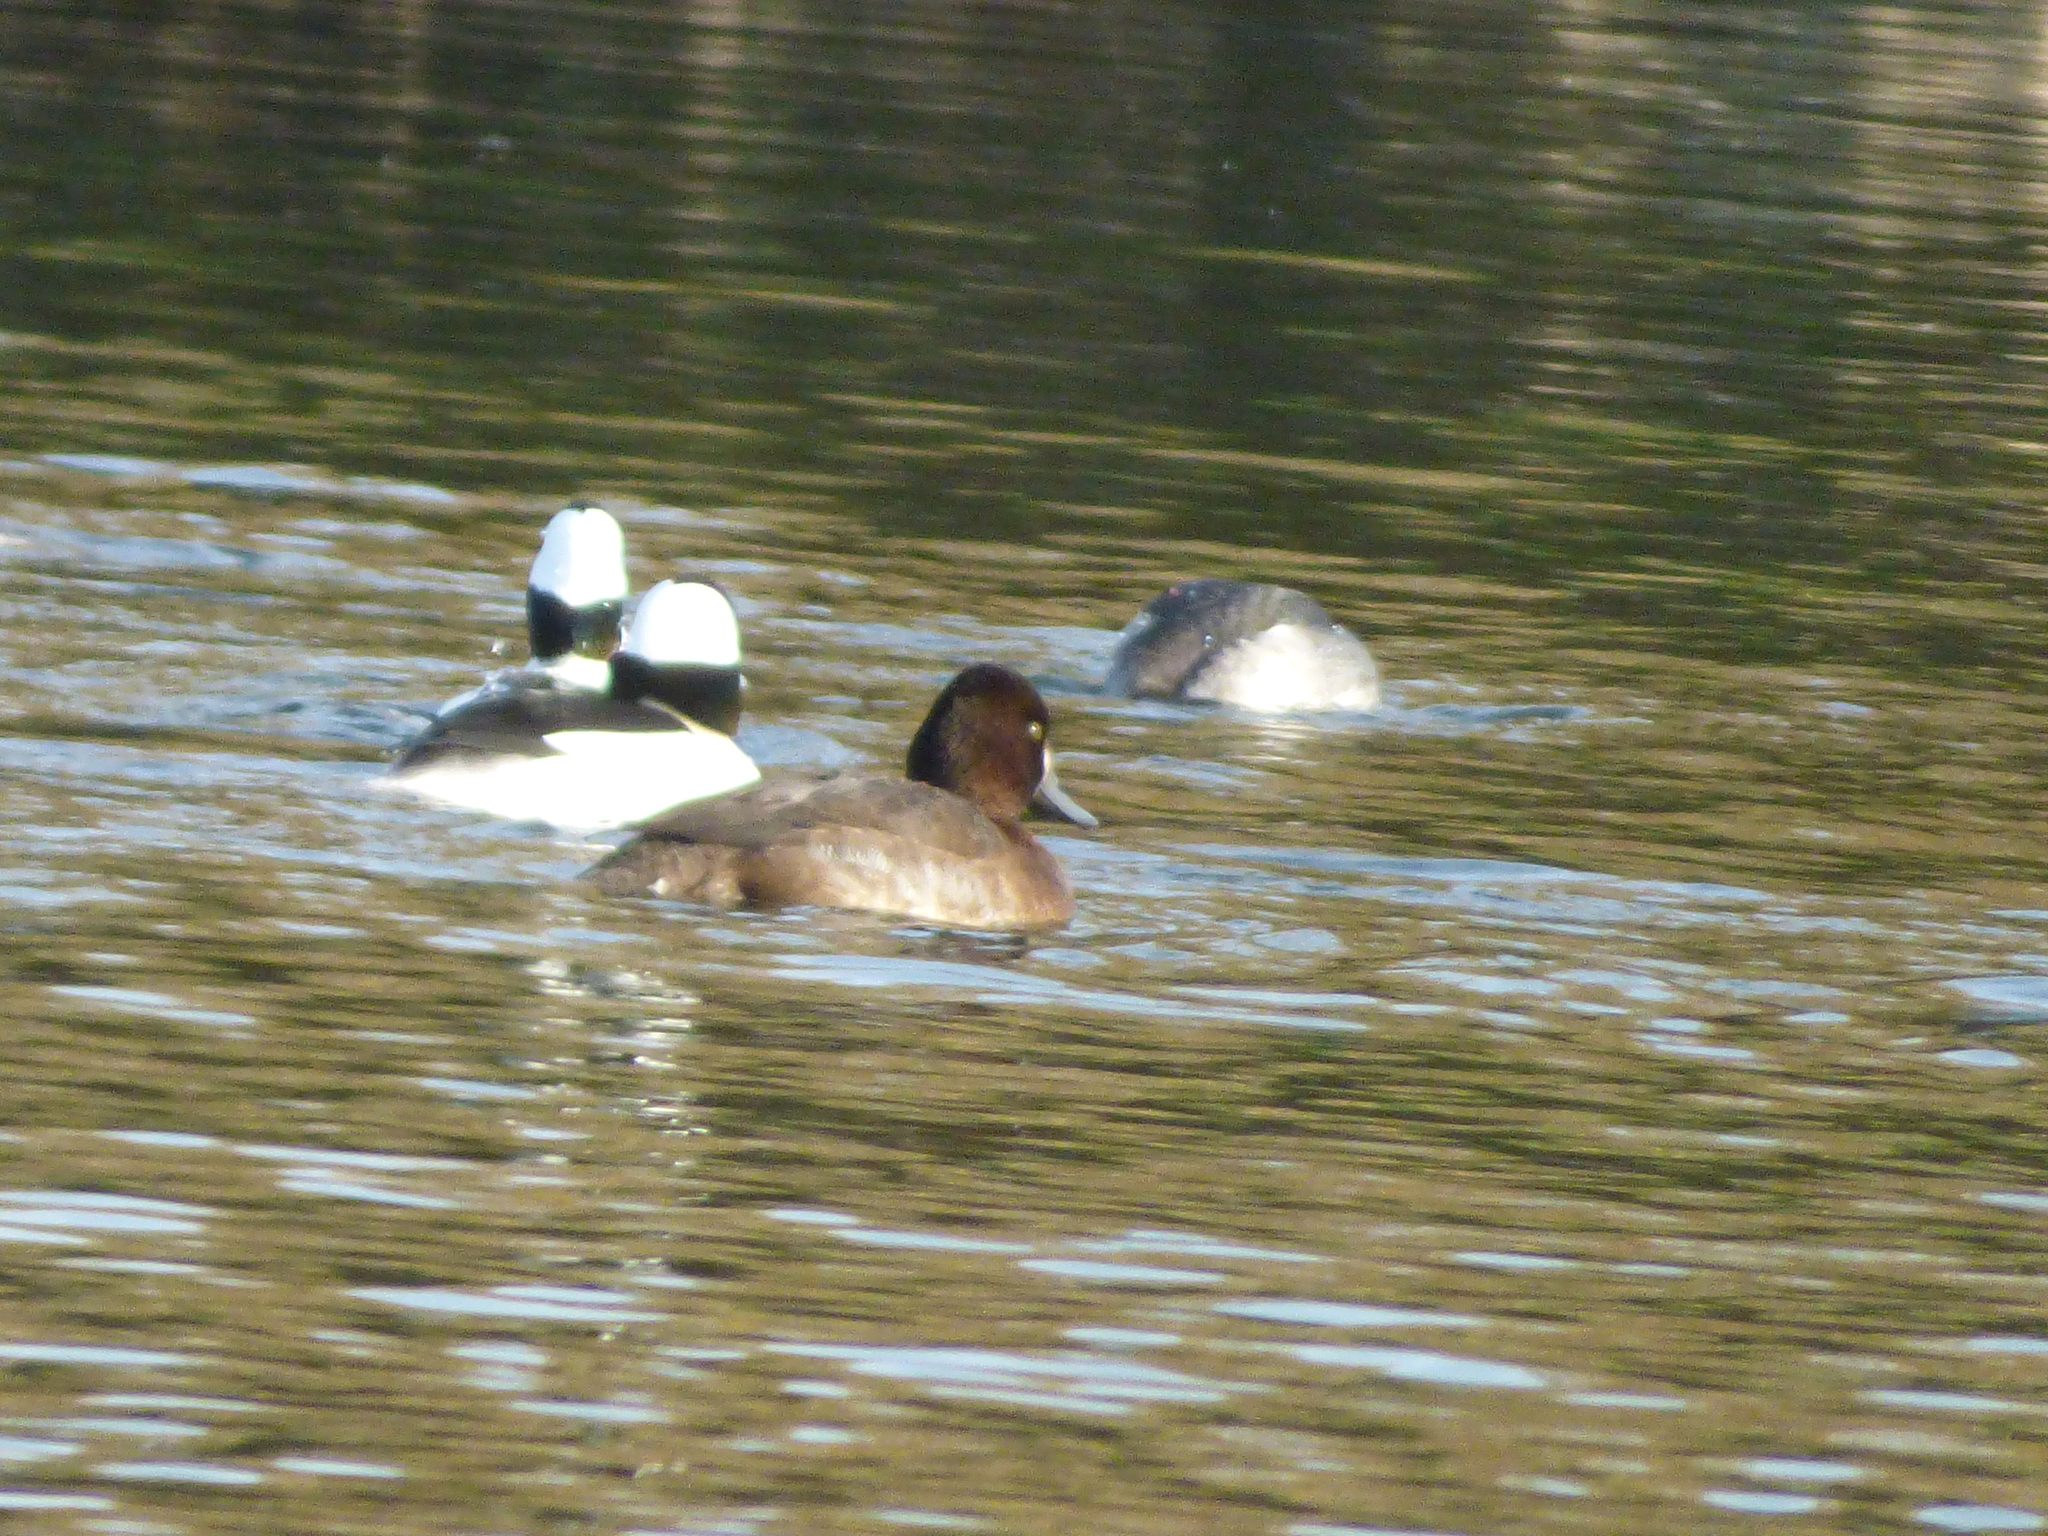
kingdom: Animalia
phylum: Chordata
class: Aves
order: Anseriformes
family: Anatidae
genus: Bucephala
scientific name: Bucephala albeola
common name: Bufflehead
